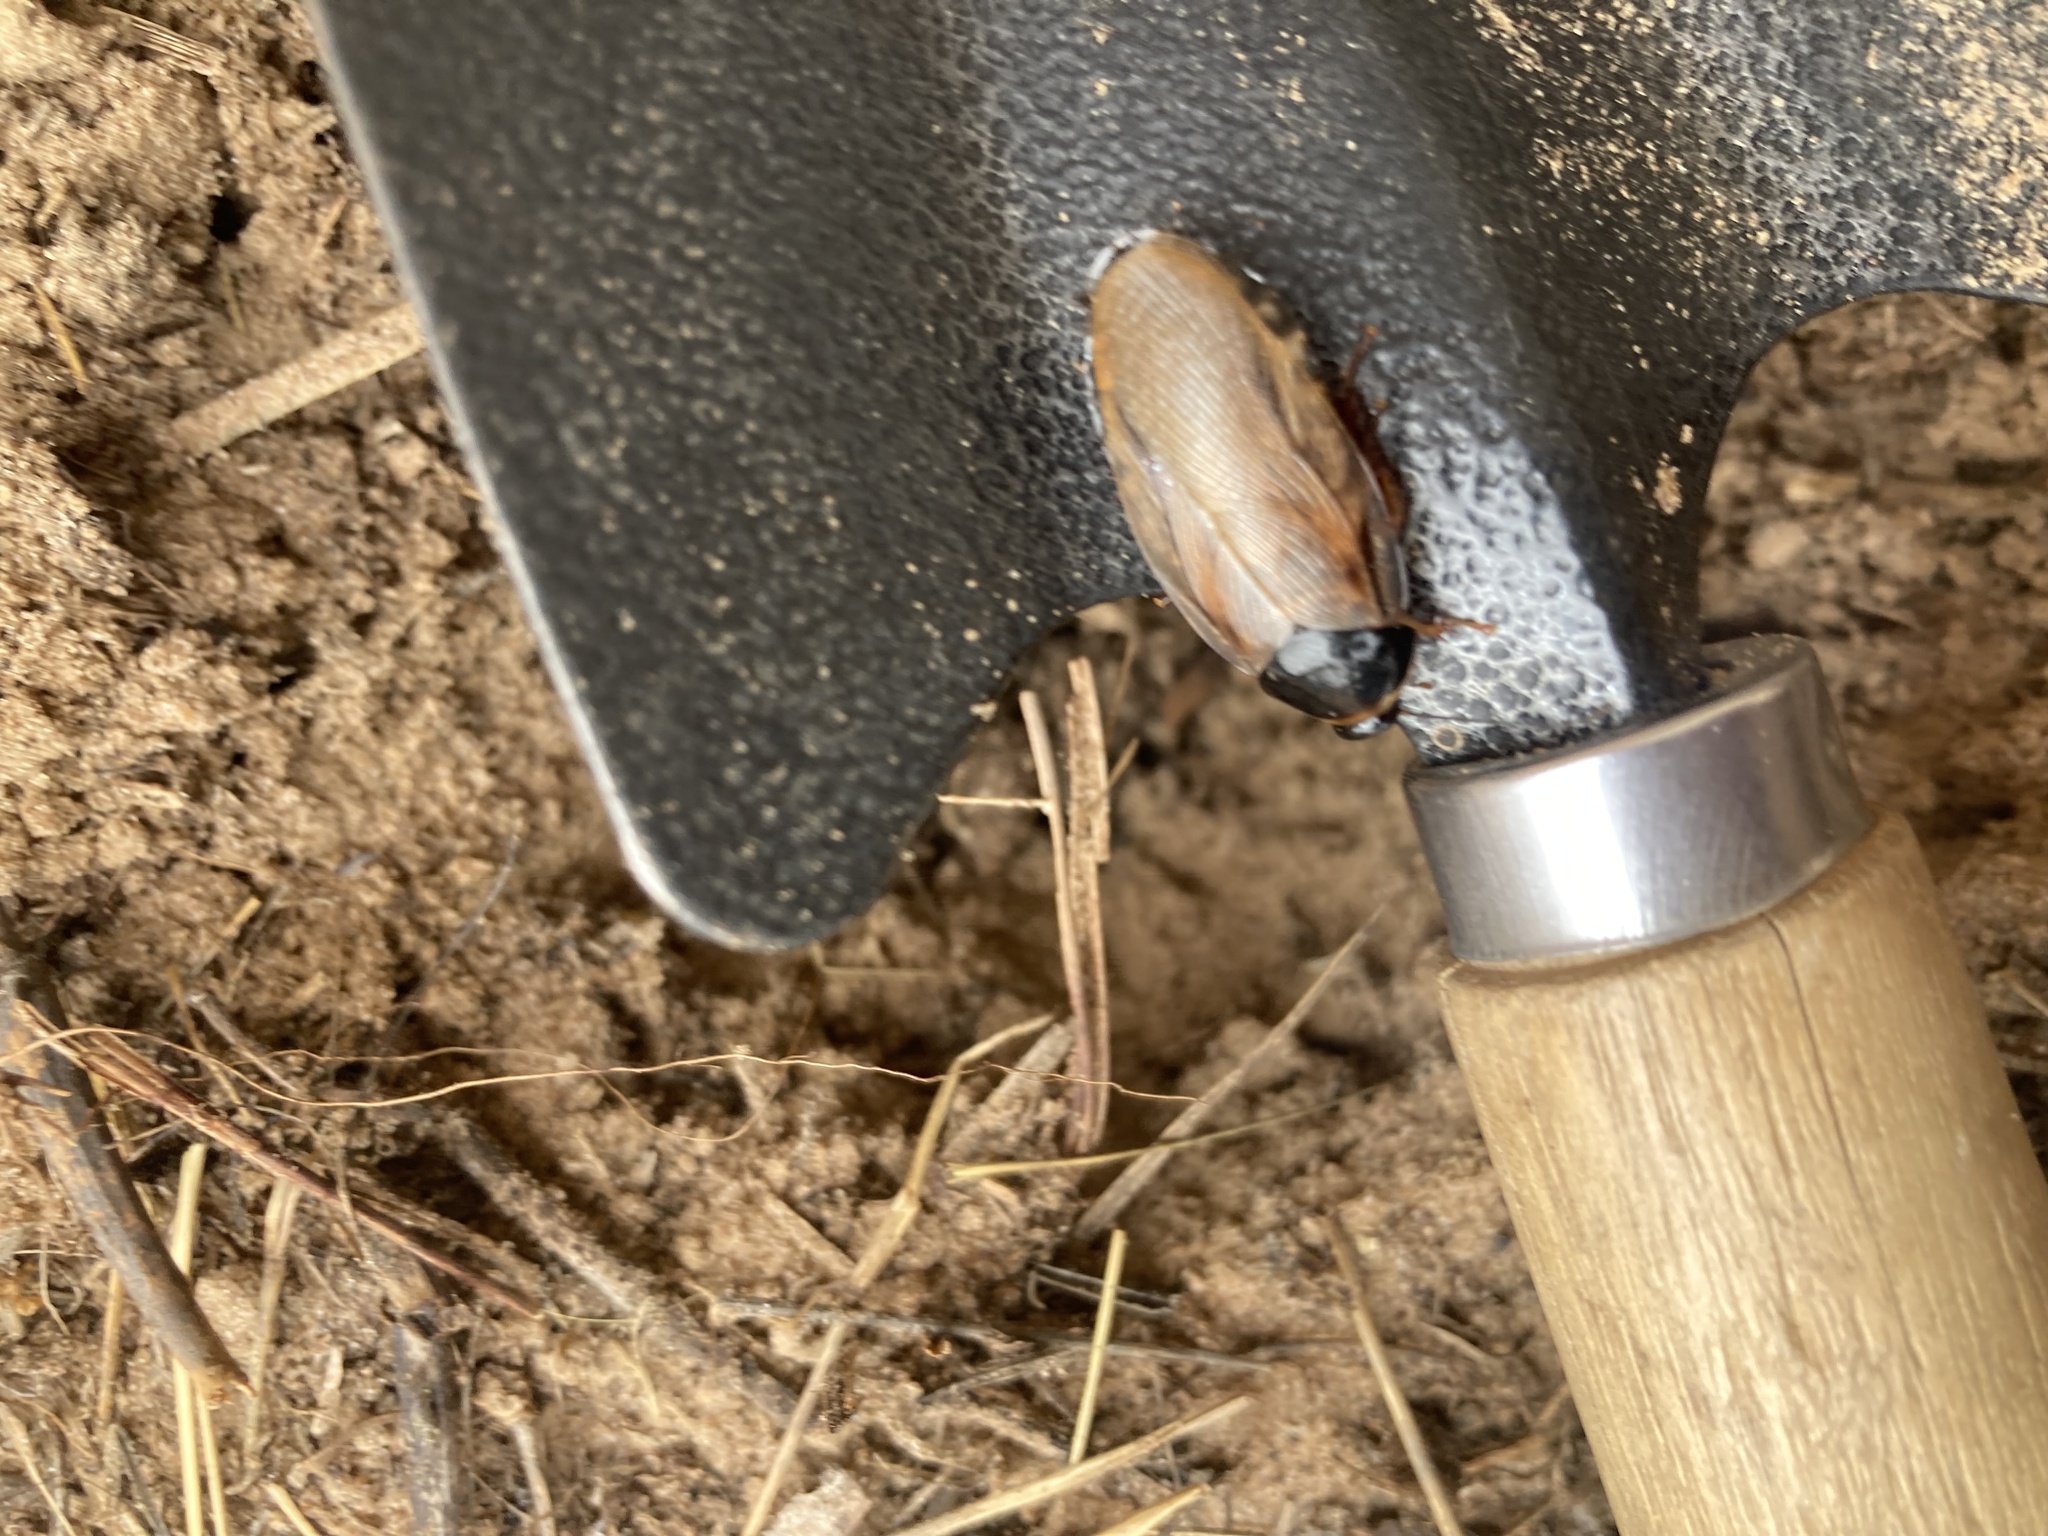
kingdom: Animalia
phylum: Arthropoda
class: Insecta
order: Blattodea
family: Blaberidae
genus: Pycnoscelus
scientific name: Pycnoscelus surinamensis
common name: Surinam cockroach
